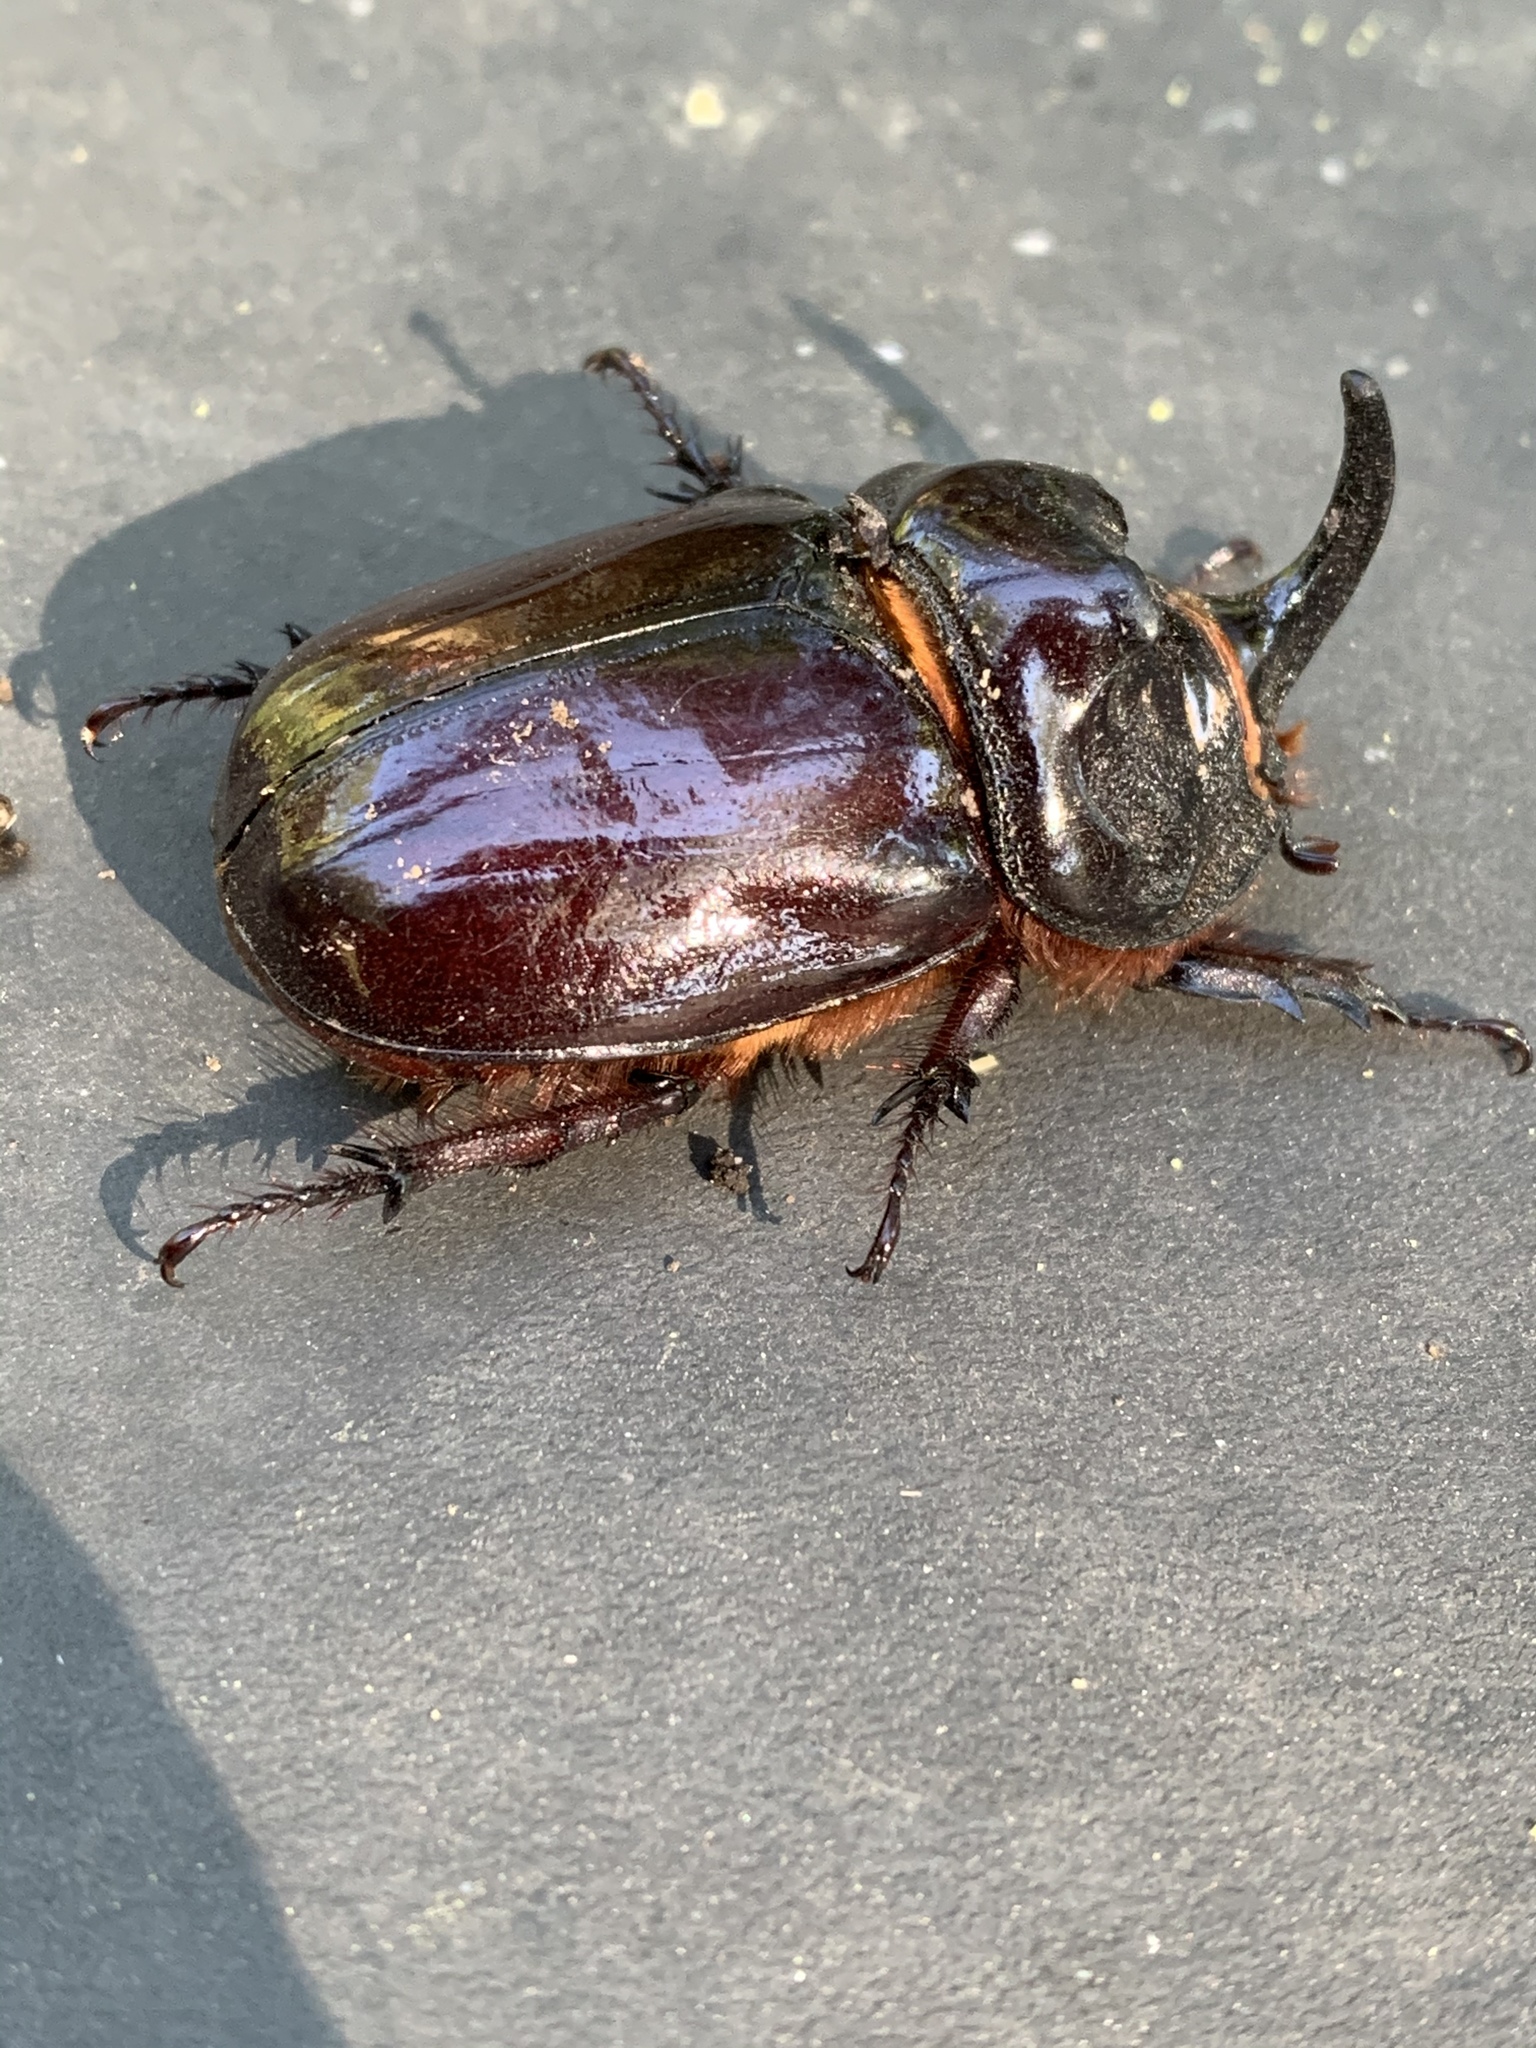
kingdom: Animalia
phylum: Arthropoda
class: Insecta
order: Coleoptera
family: Scarabaeidae
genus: Oryctes
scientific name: Oryctes nasicornis
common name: European rhinoceros beetle
